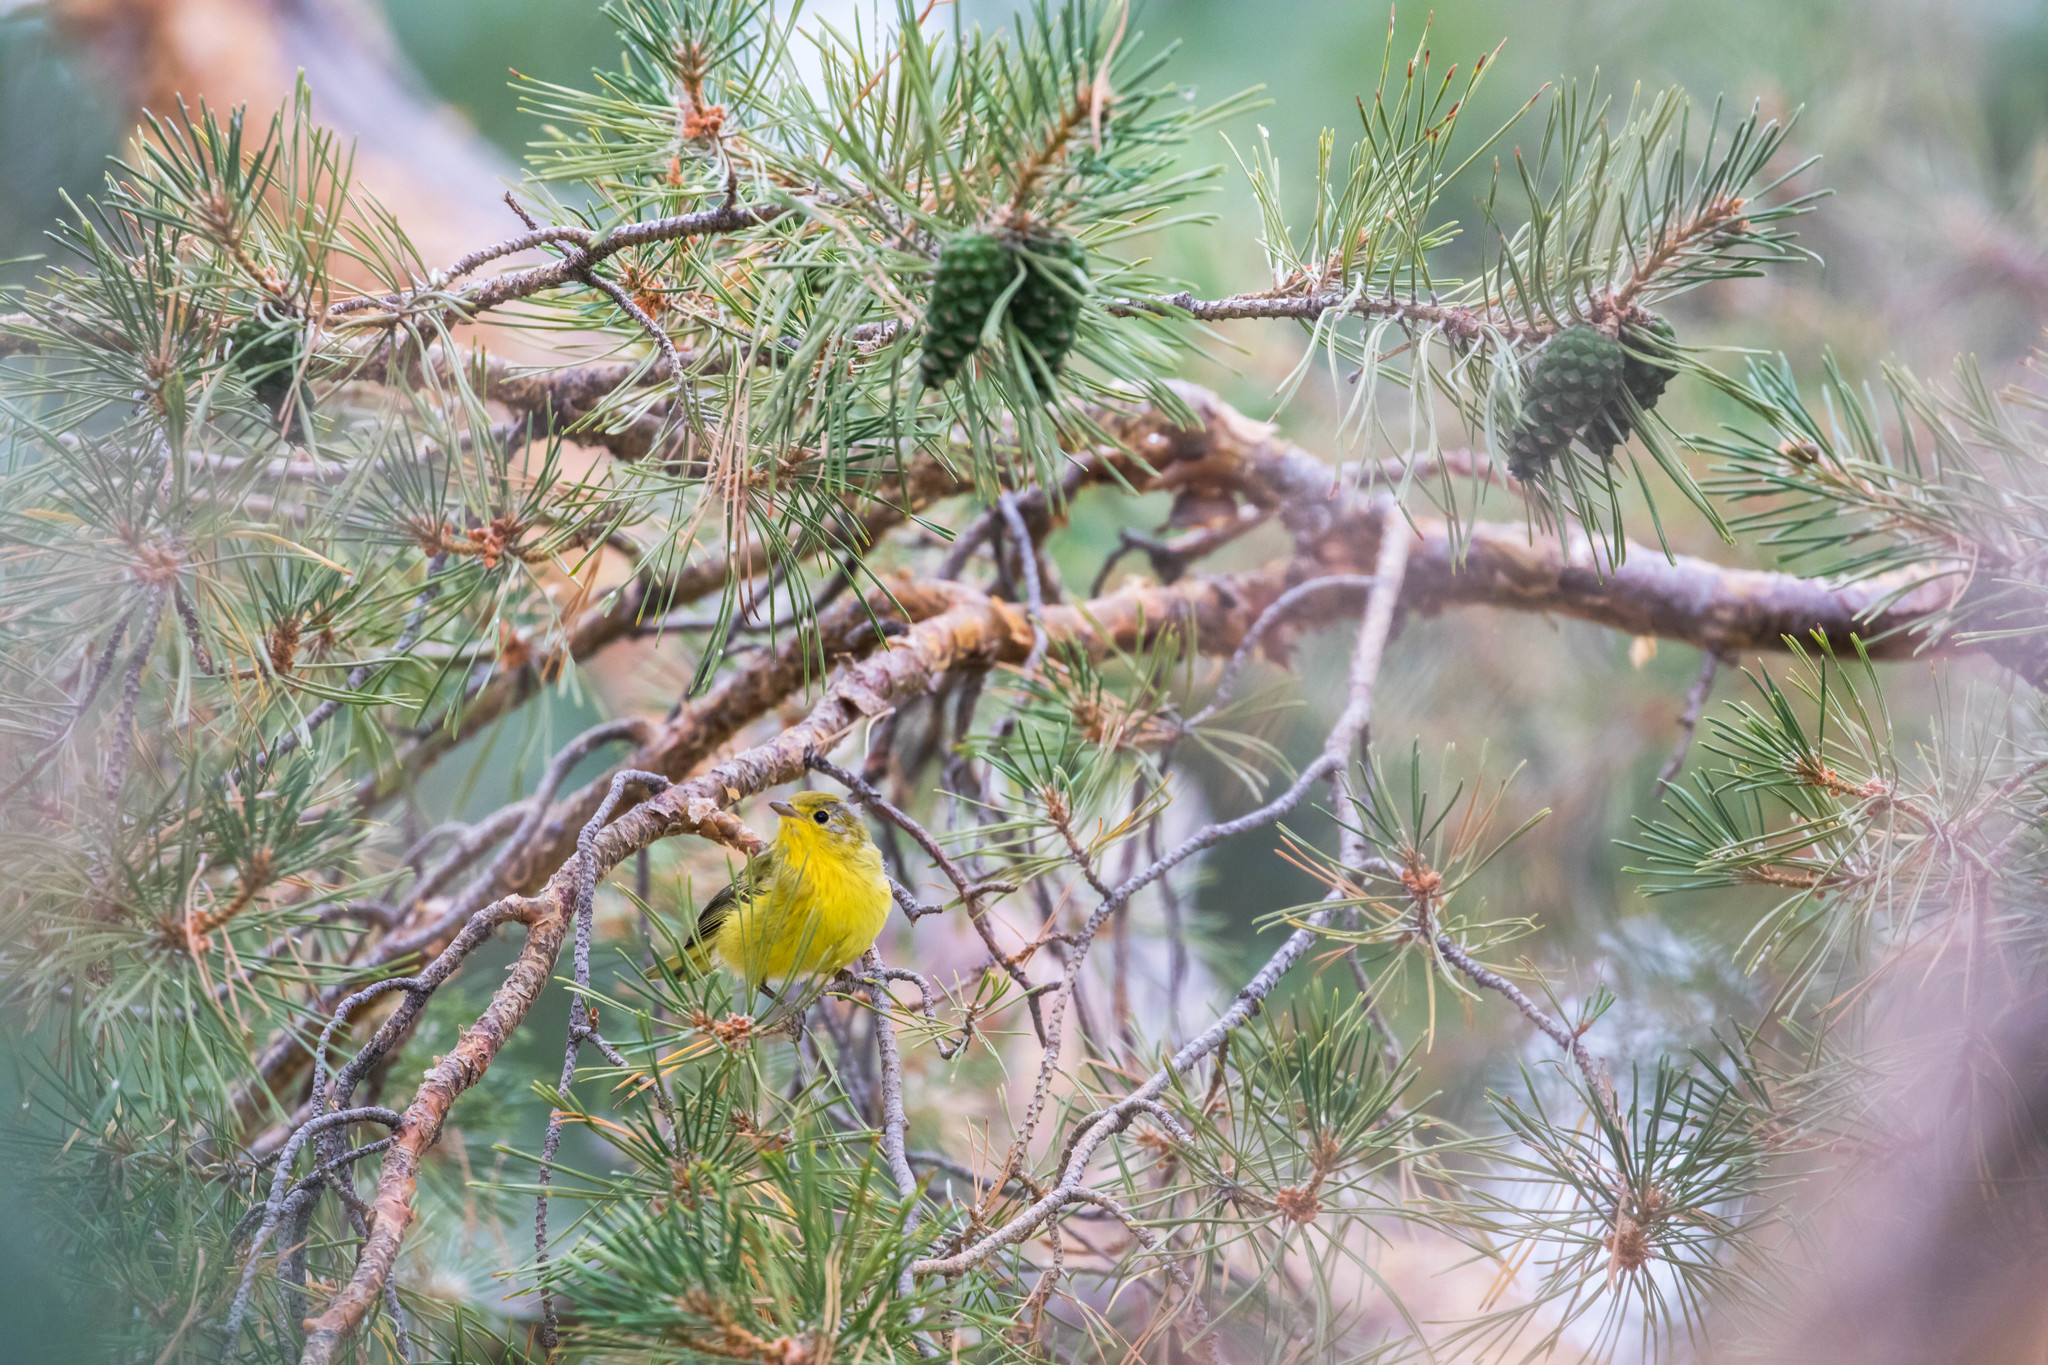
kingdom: Animalia
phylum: Chordata
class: Aves
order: Passeriformes
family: Parulidae
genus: Setophaga
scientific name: Setophaga petechia
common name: Yellow warbler
